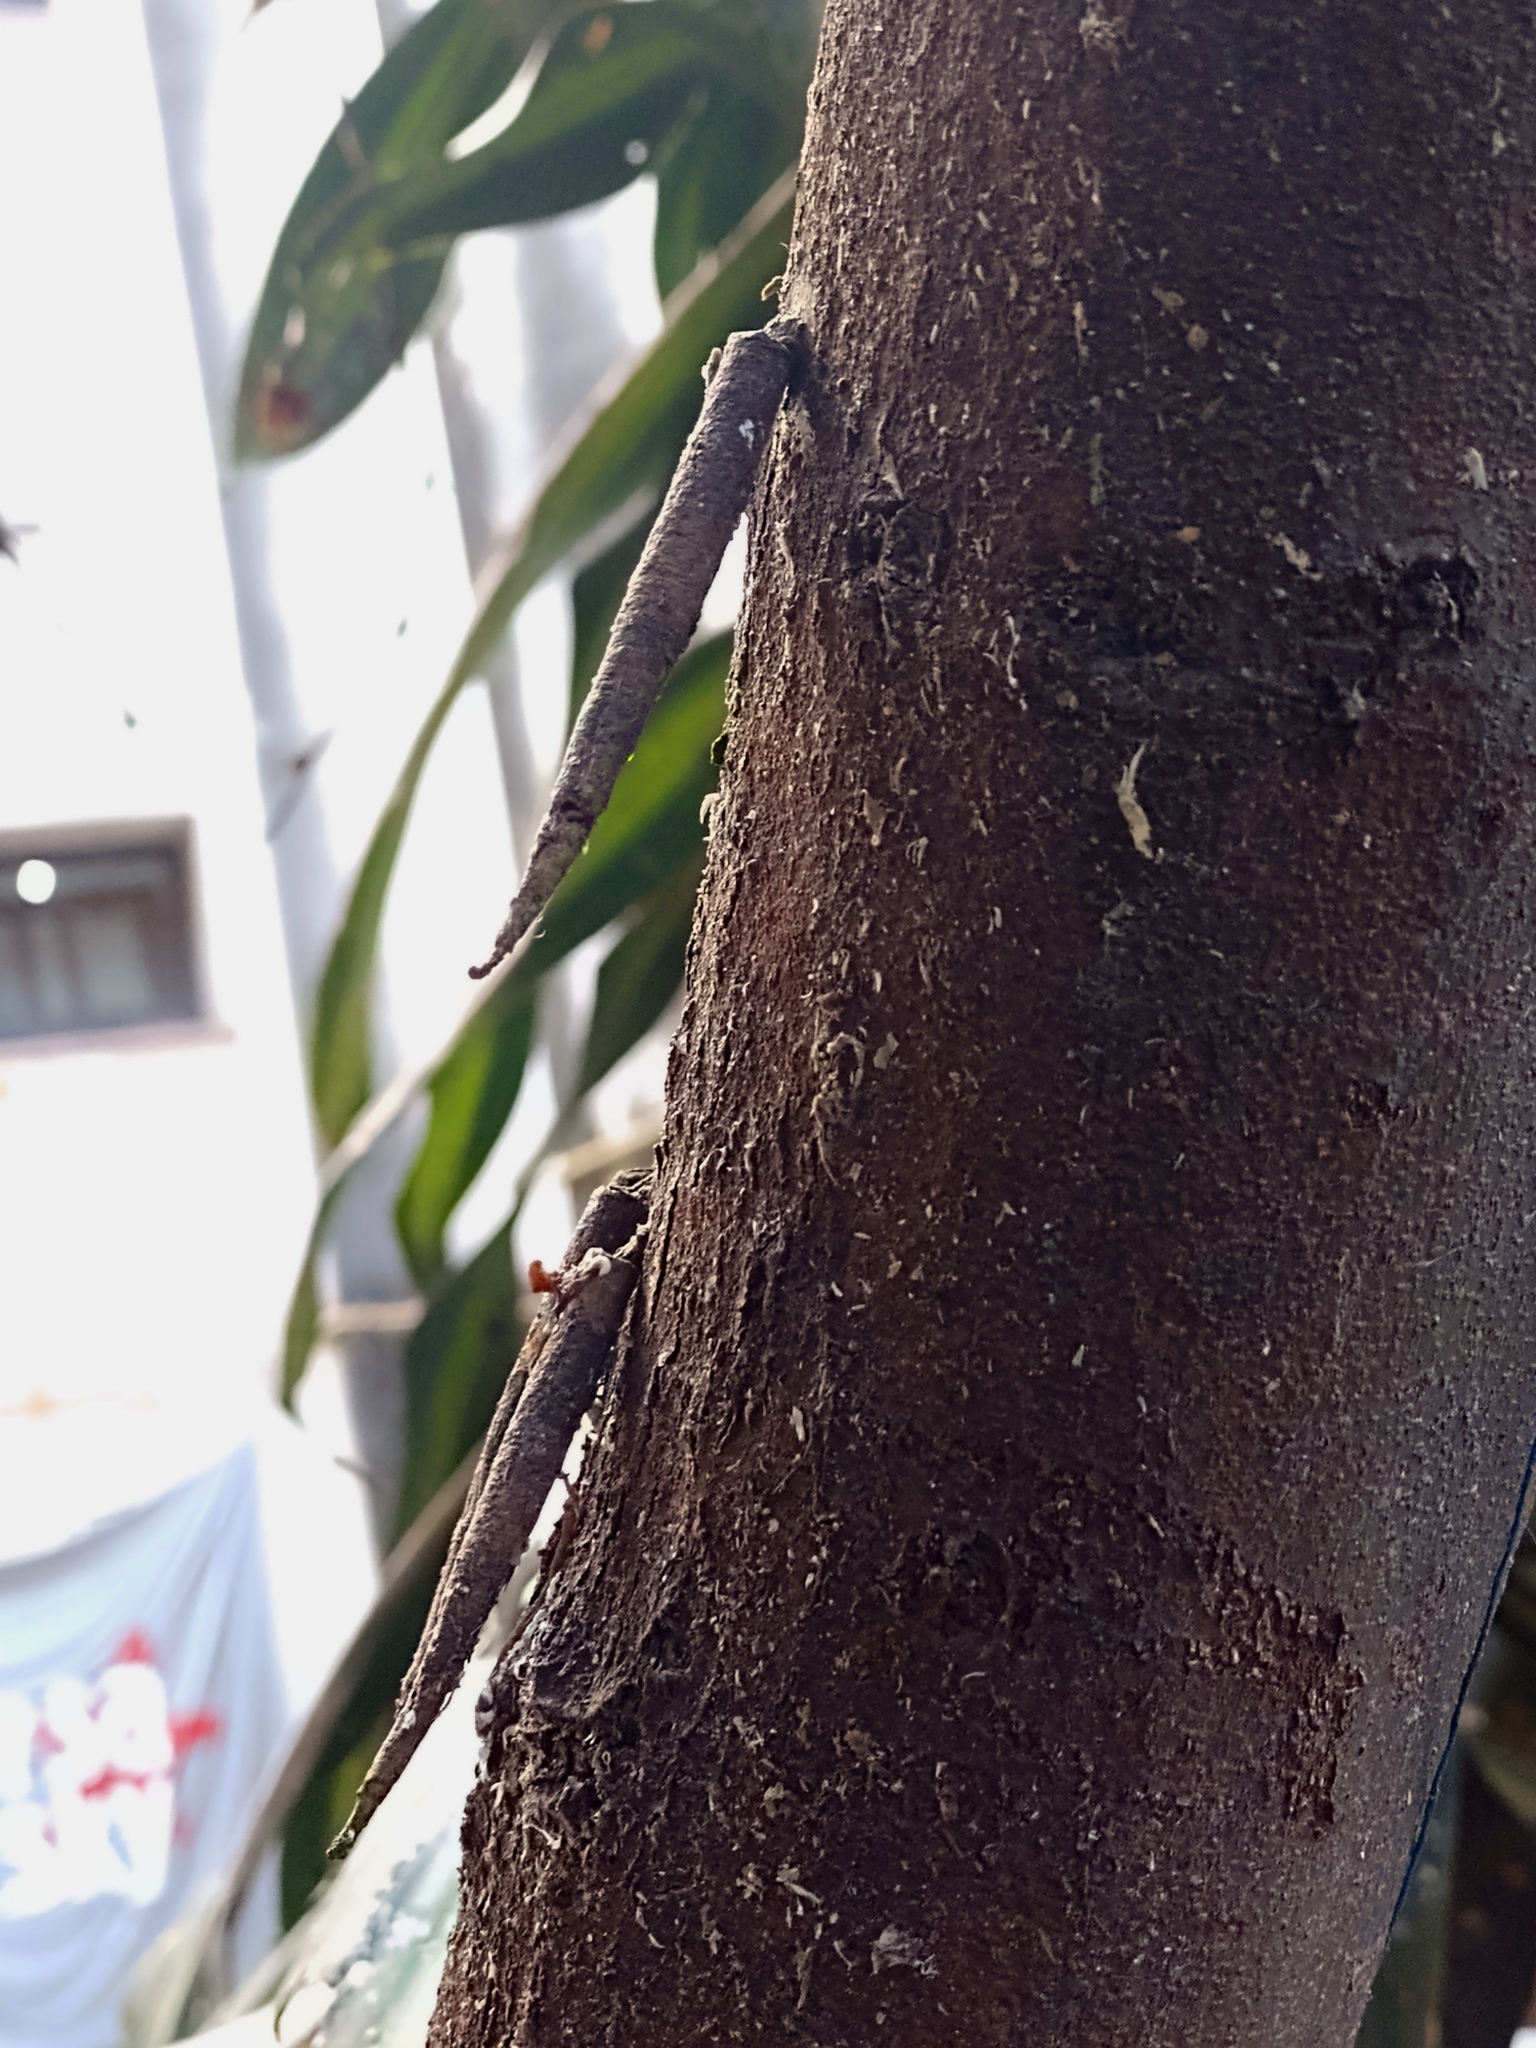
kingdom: Animalia
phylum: Arthropoda
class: Insecta
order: Lepidoptera
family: Psychidae
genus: Oiketicus
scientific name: Oiketicus geyeri
